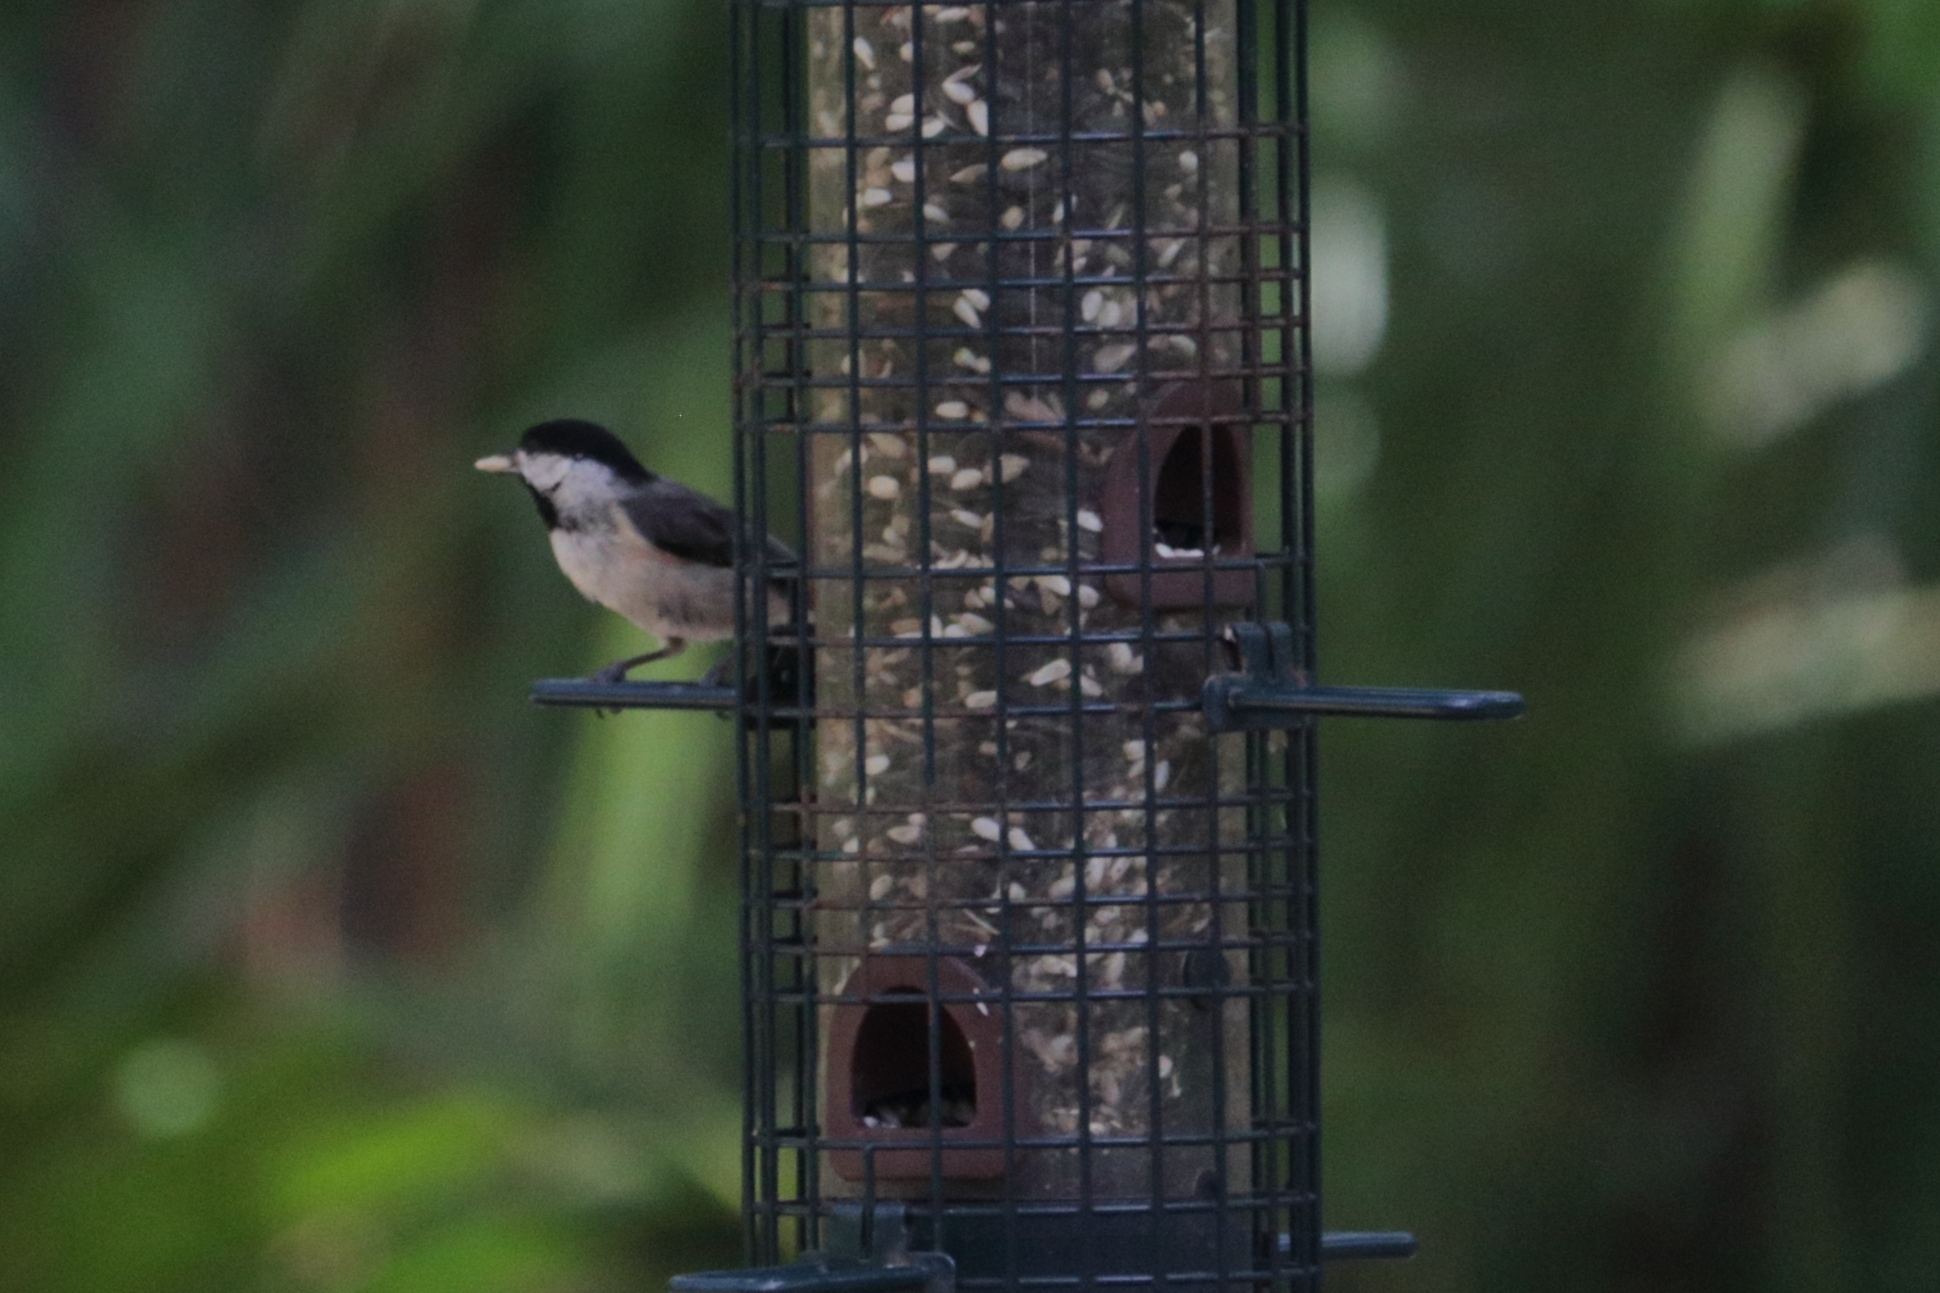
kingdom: Animalia
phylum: Chordata
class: Aves
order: Passeriformes
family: Paridae
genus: Poecile
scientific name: Poecile carolinensis
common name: Carolina chickadee
